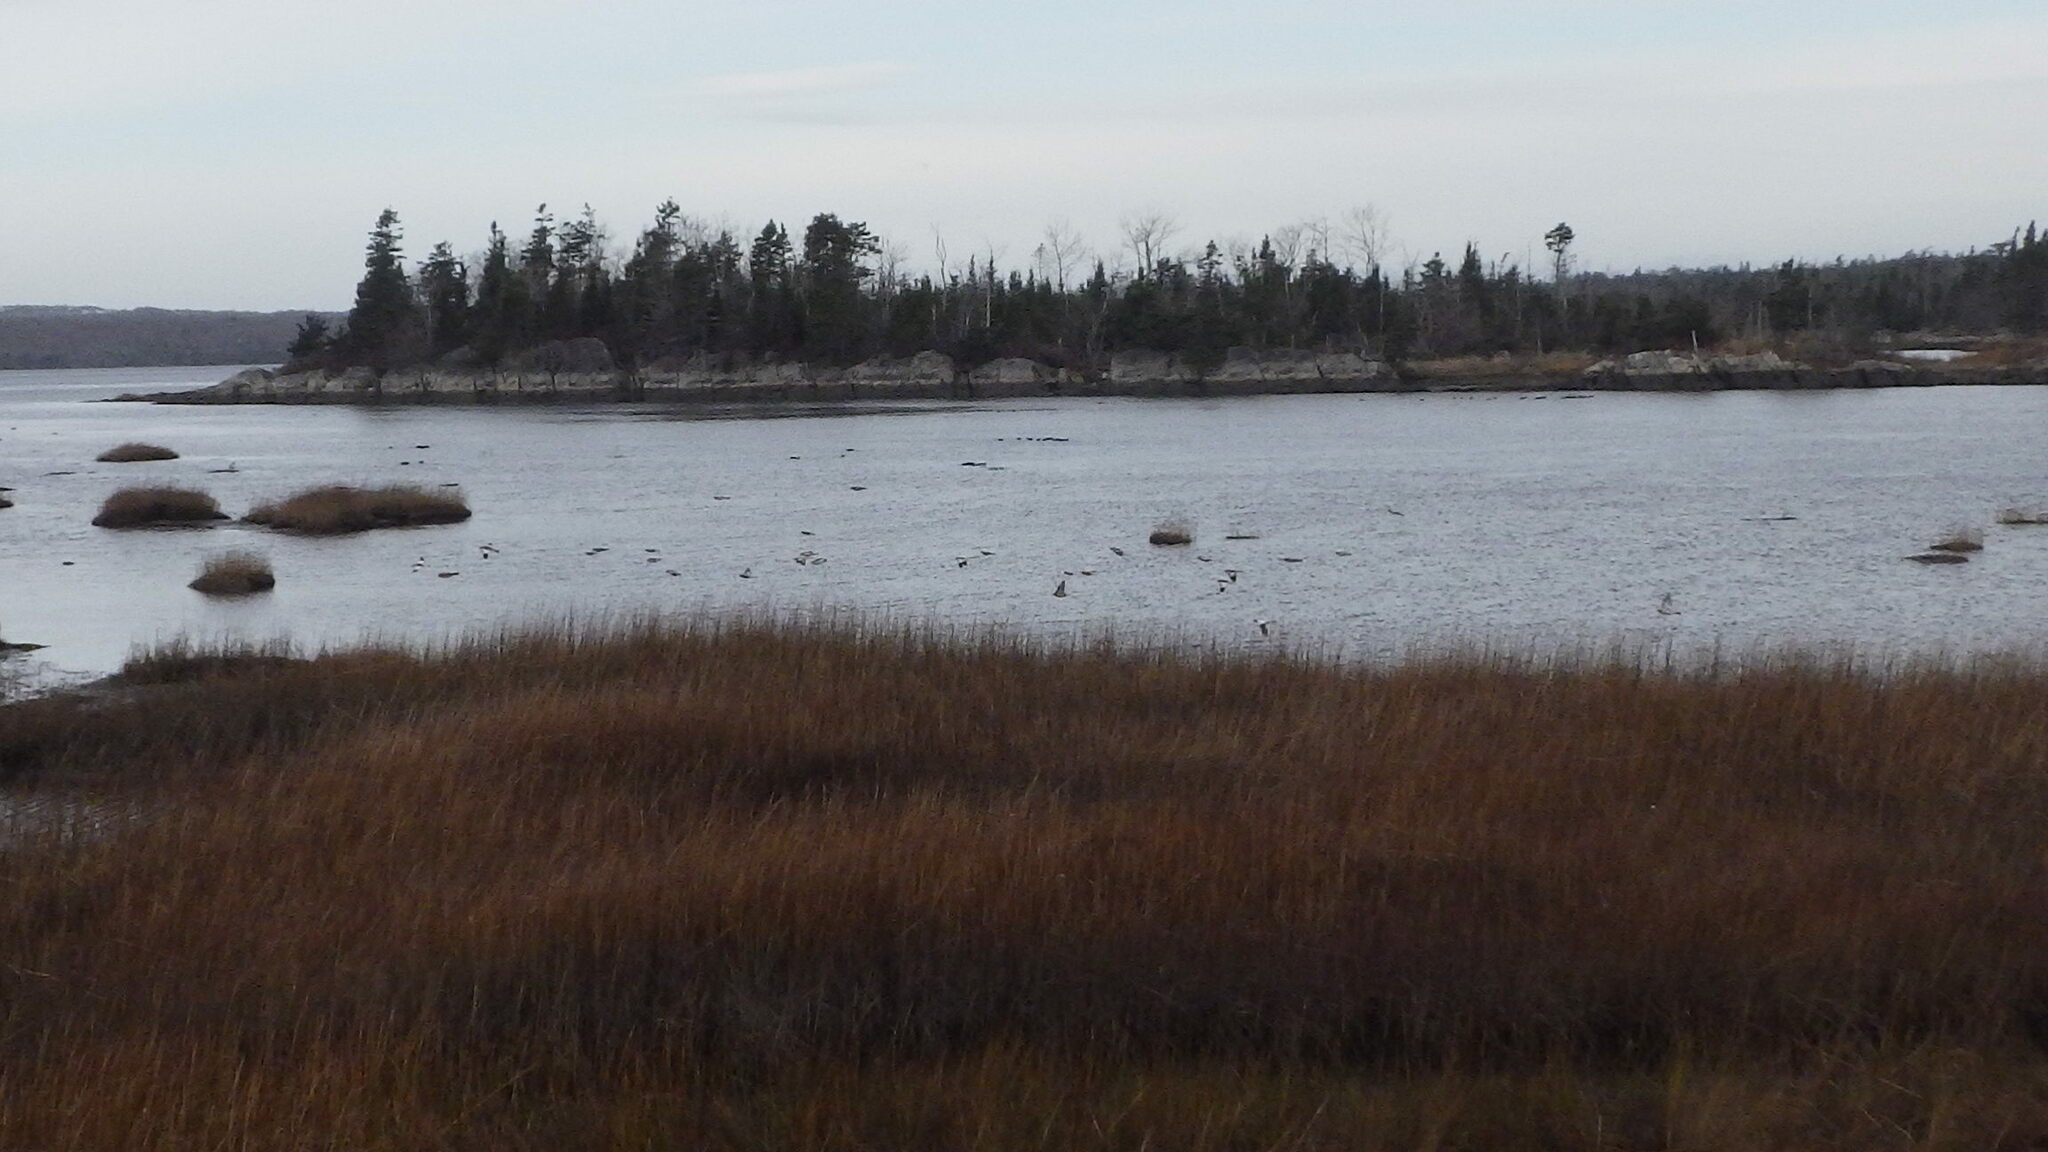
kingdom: Animalia
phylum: Chordata
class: Aves
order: Passeriformes
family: Calcariidae
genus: Plectrophenax
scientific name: Plectrophenax nivalis
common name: Snow bunting
